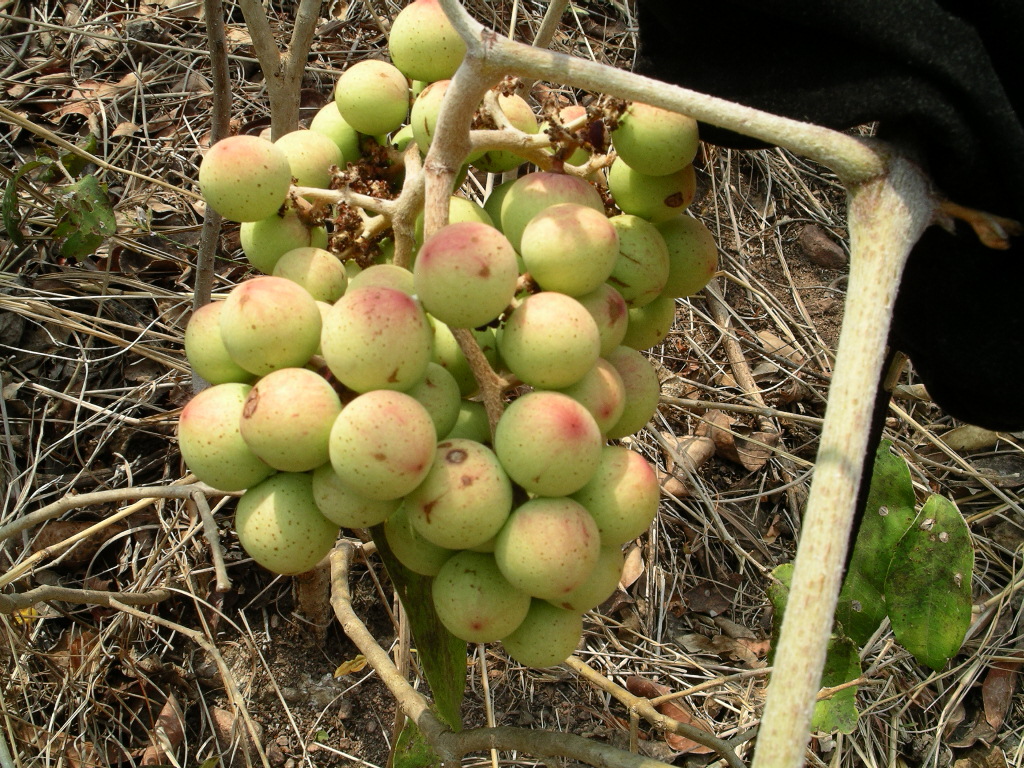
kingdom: Plantae
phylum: Tracheophyta
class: Magnoliopsida
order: Vitales
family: Vitaceae
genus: Ampelocissus
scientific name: Ampelocissus acapulcensis
